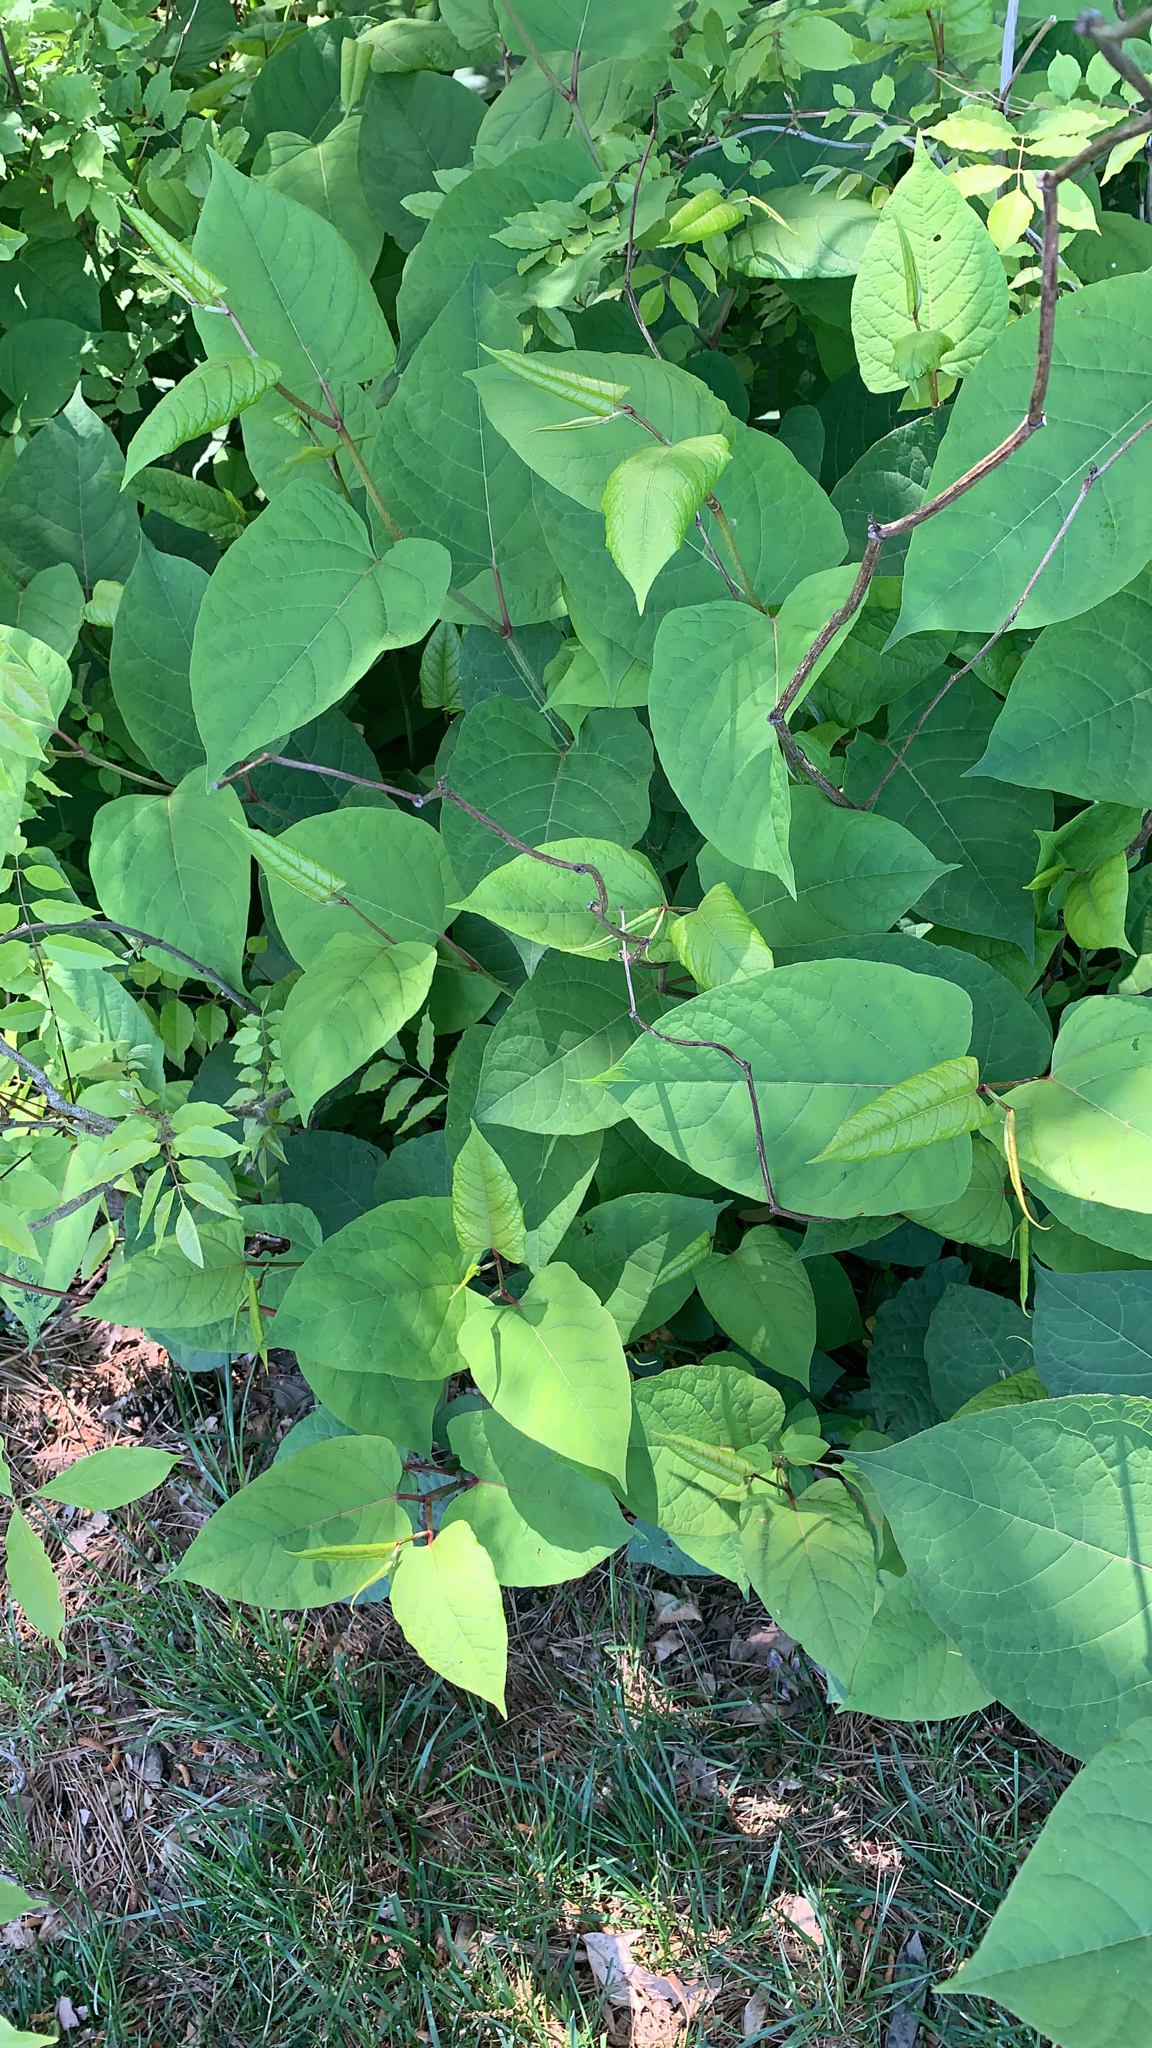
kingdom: Plantae
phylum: Tracheophyta
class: Magnoliopsida
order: Caryophyllales
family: Polygonaceae
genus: Reynoutria
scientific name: Reynoutria japonica
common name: Japanese knotweed
